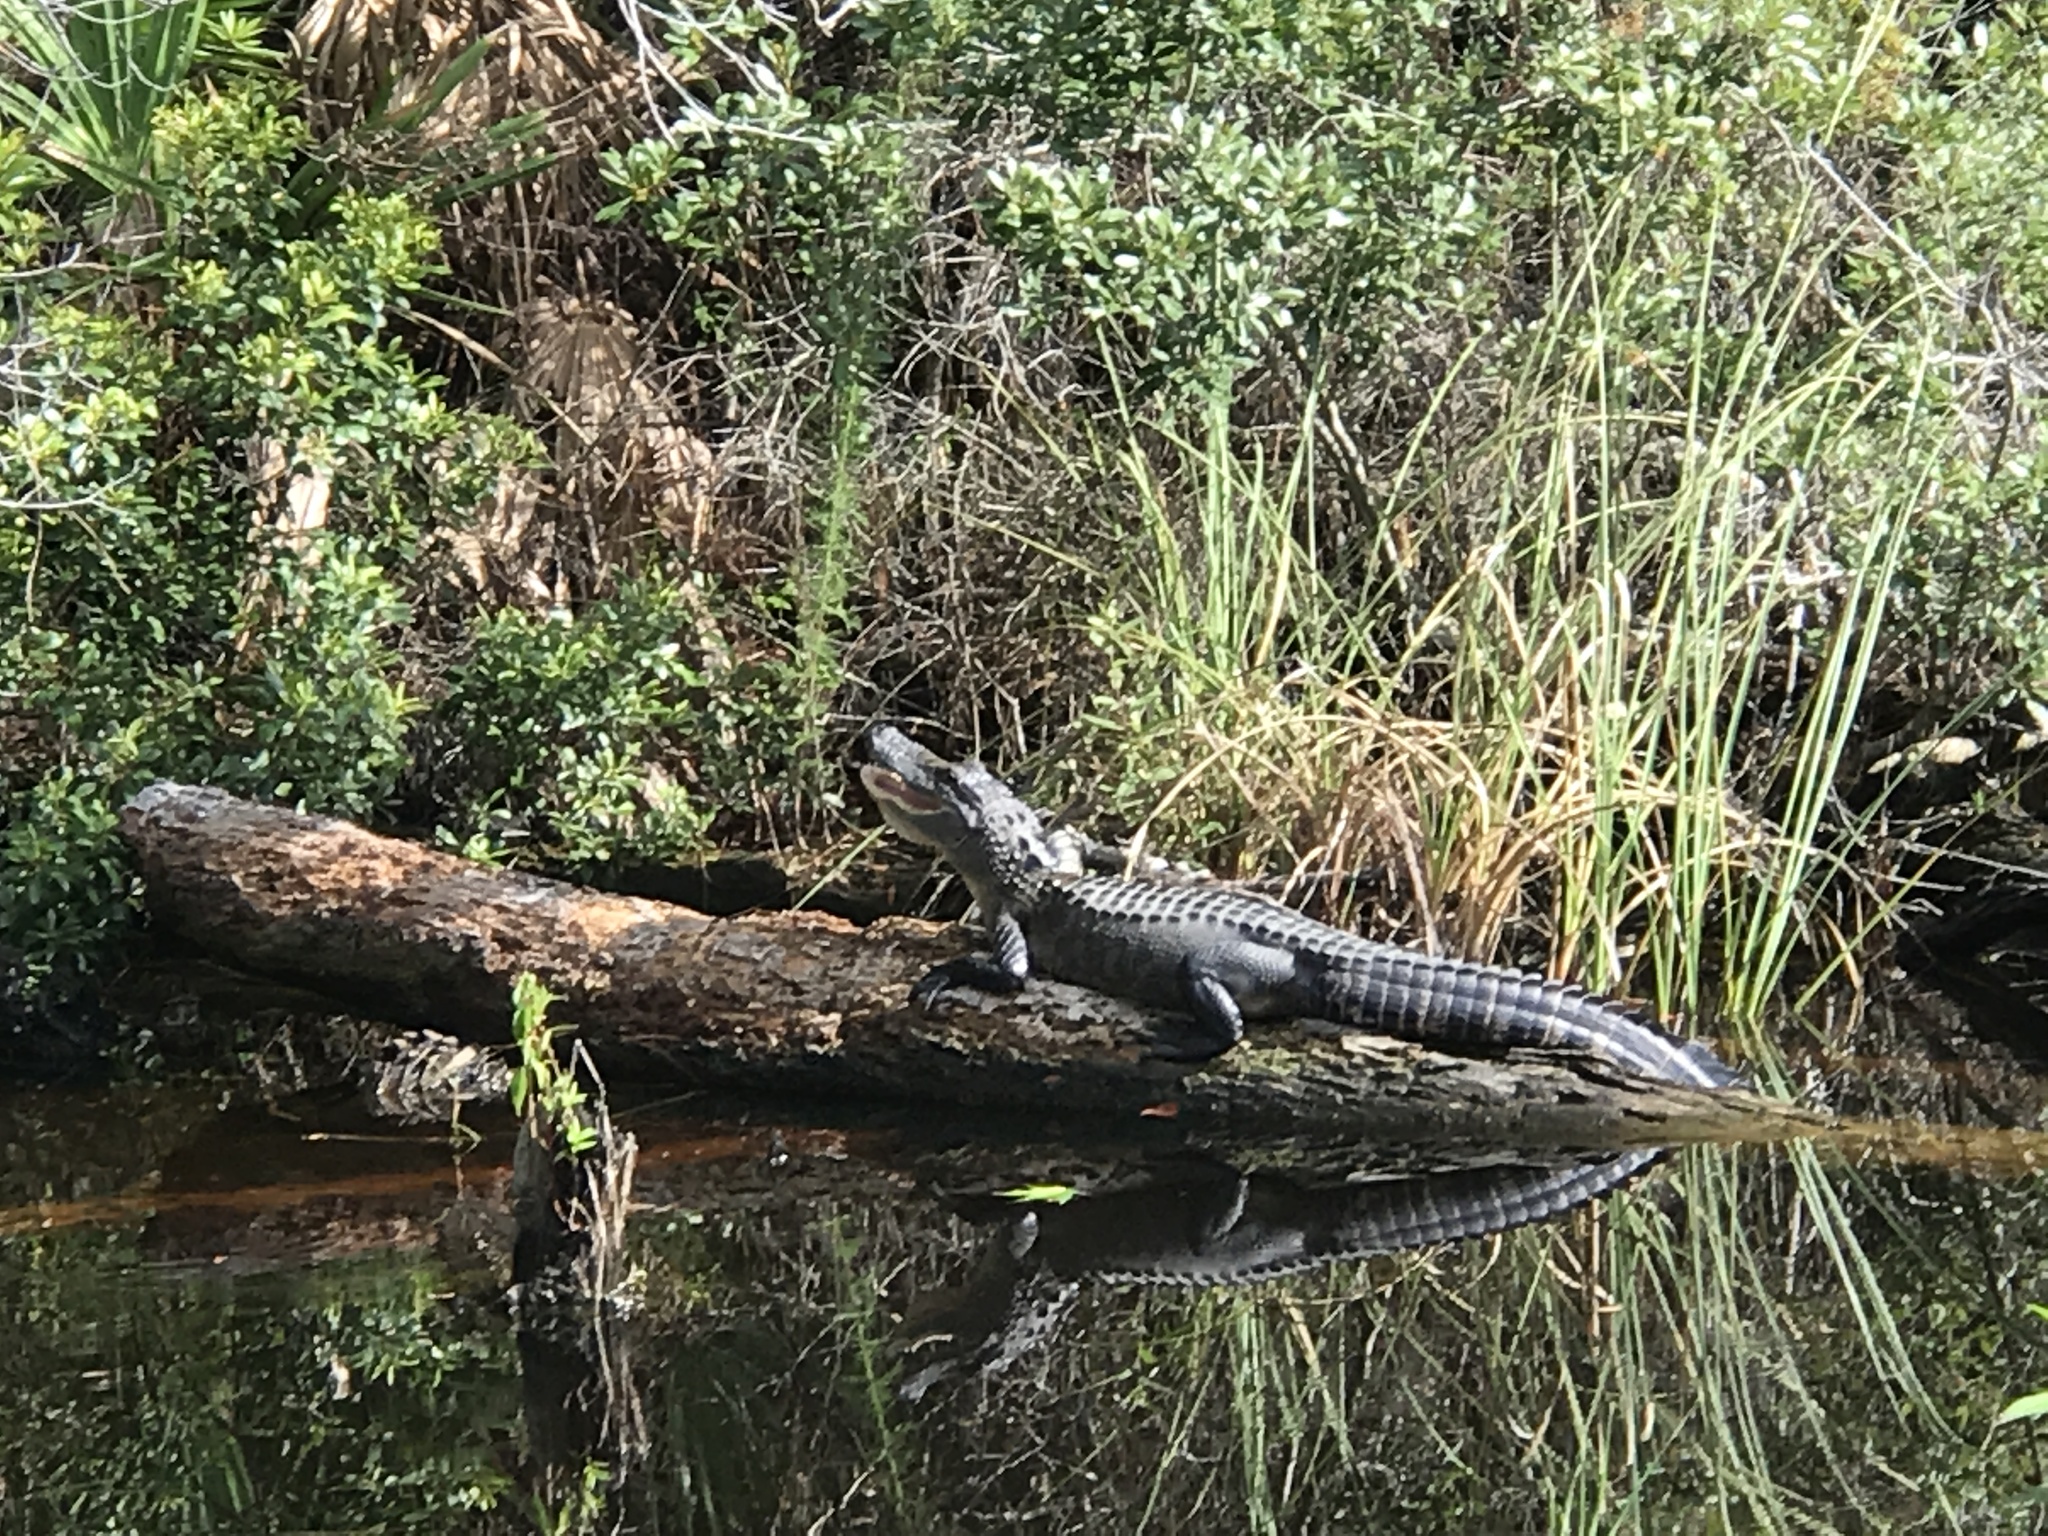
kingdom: Animalia
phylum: Chordata
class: Crocodylia
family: Alligatoridae
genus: Alligator
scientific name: Alligator mississippiensis
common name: American alligator
